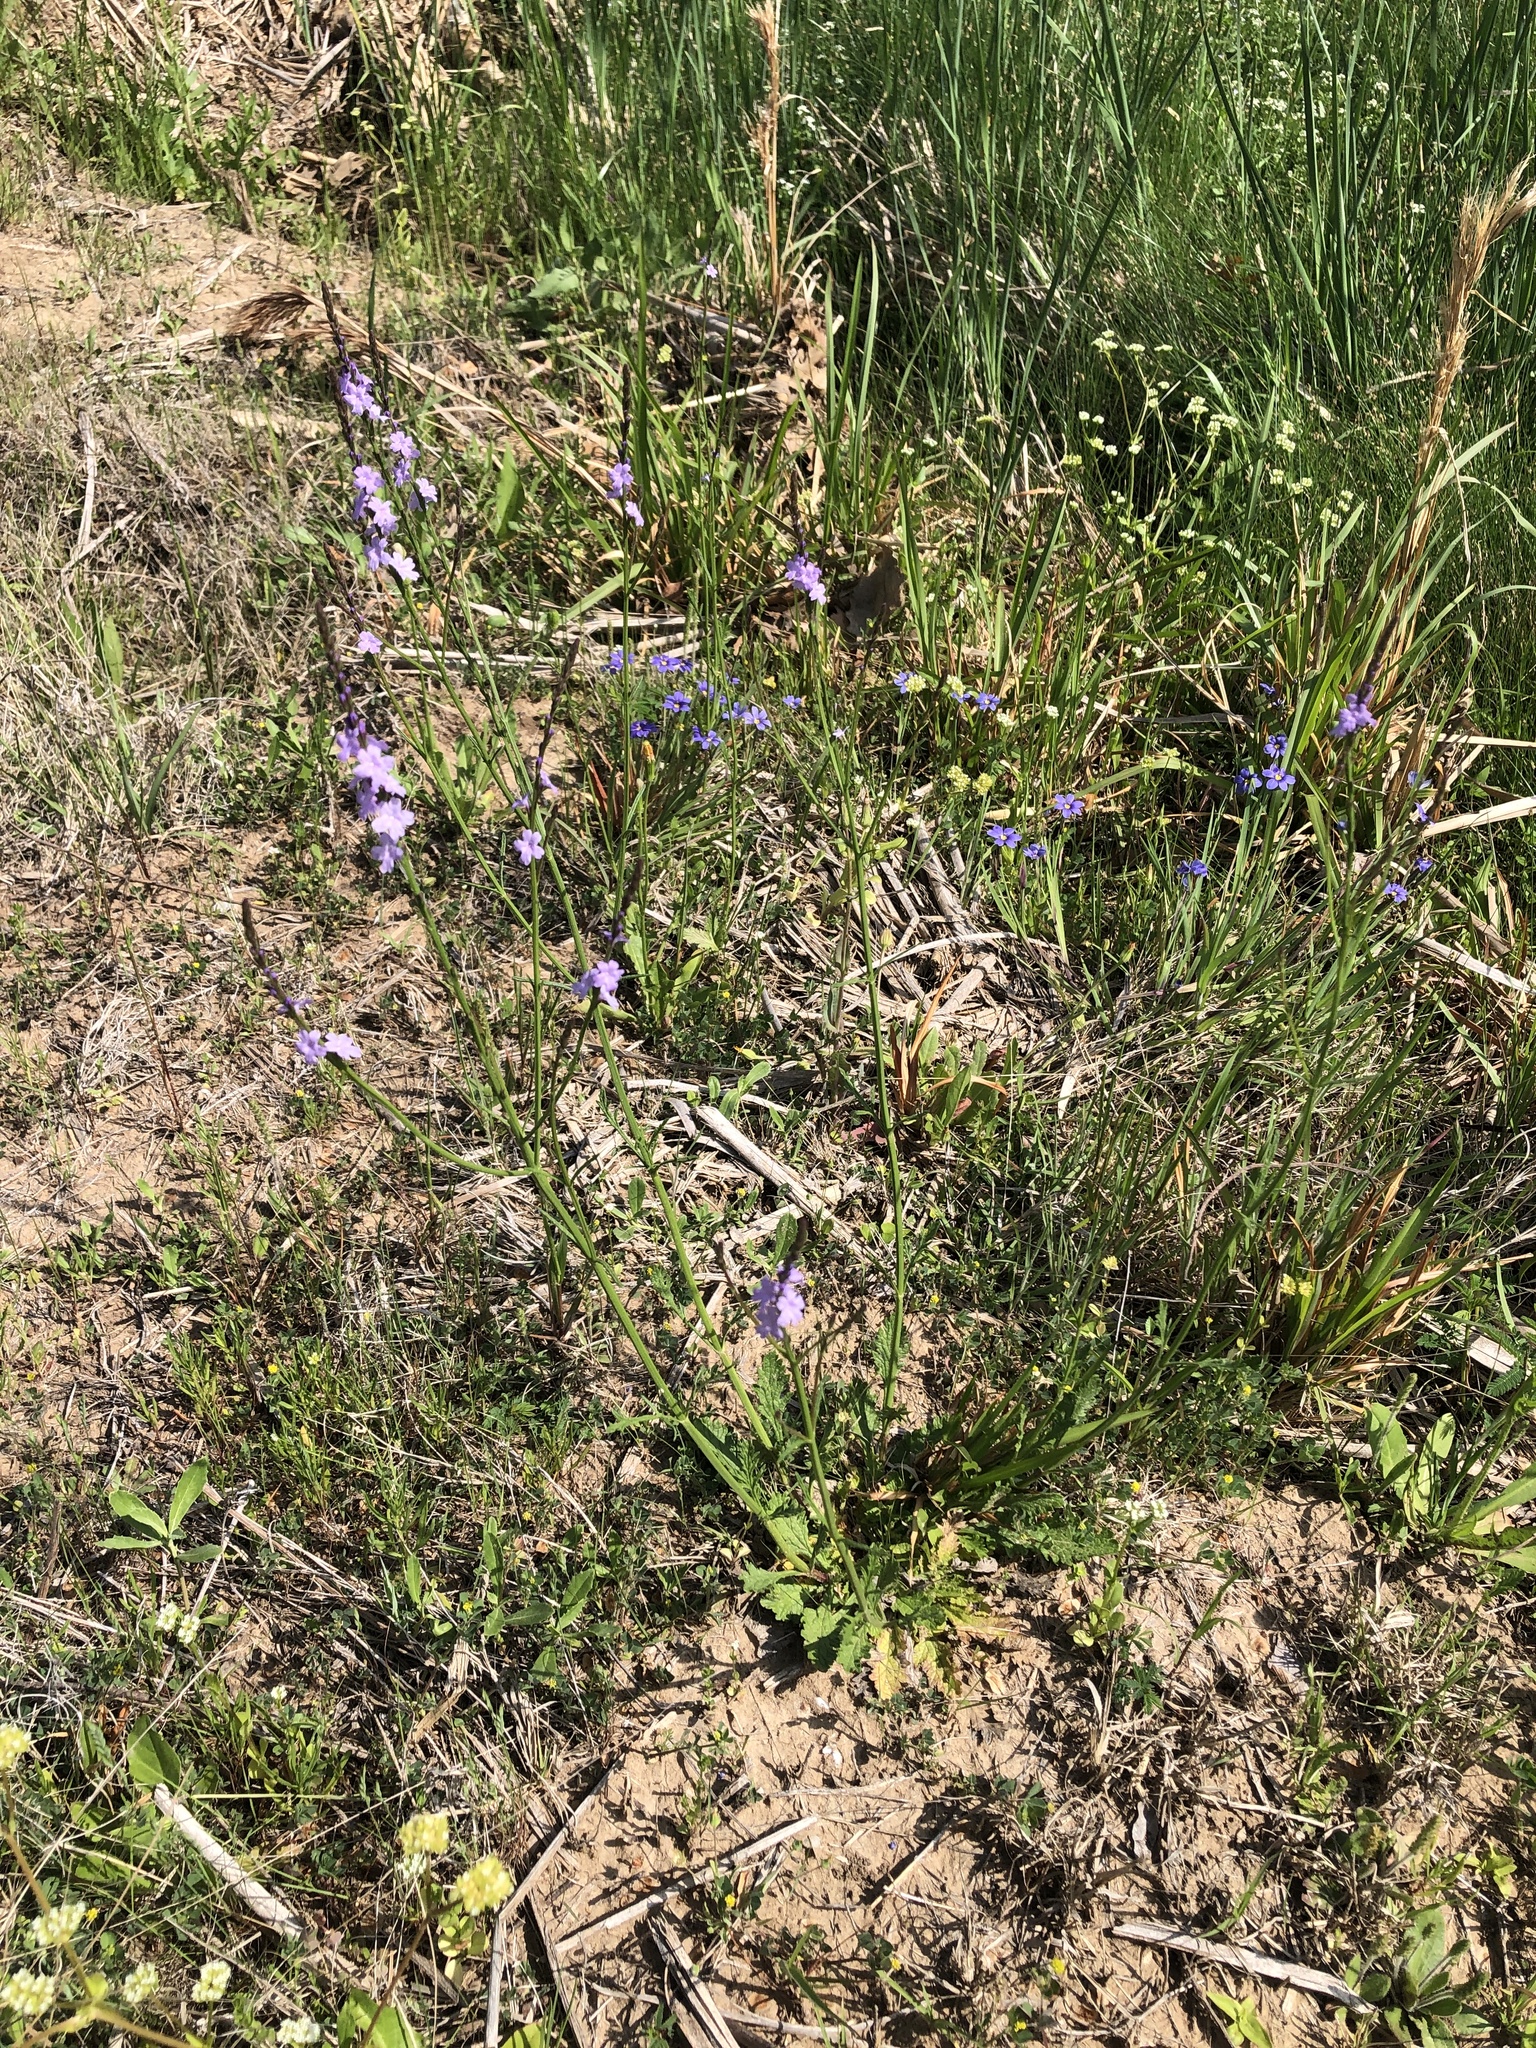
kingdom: Plantae
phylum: Tracheophyta
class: Magnoliopsida
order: Lamiales
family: Verbenaceae
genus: Verbena
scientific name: Verbena halei
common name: Texas vervain
